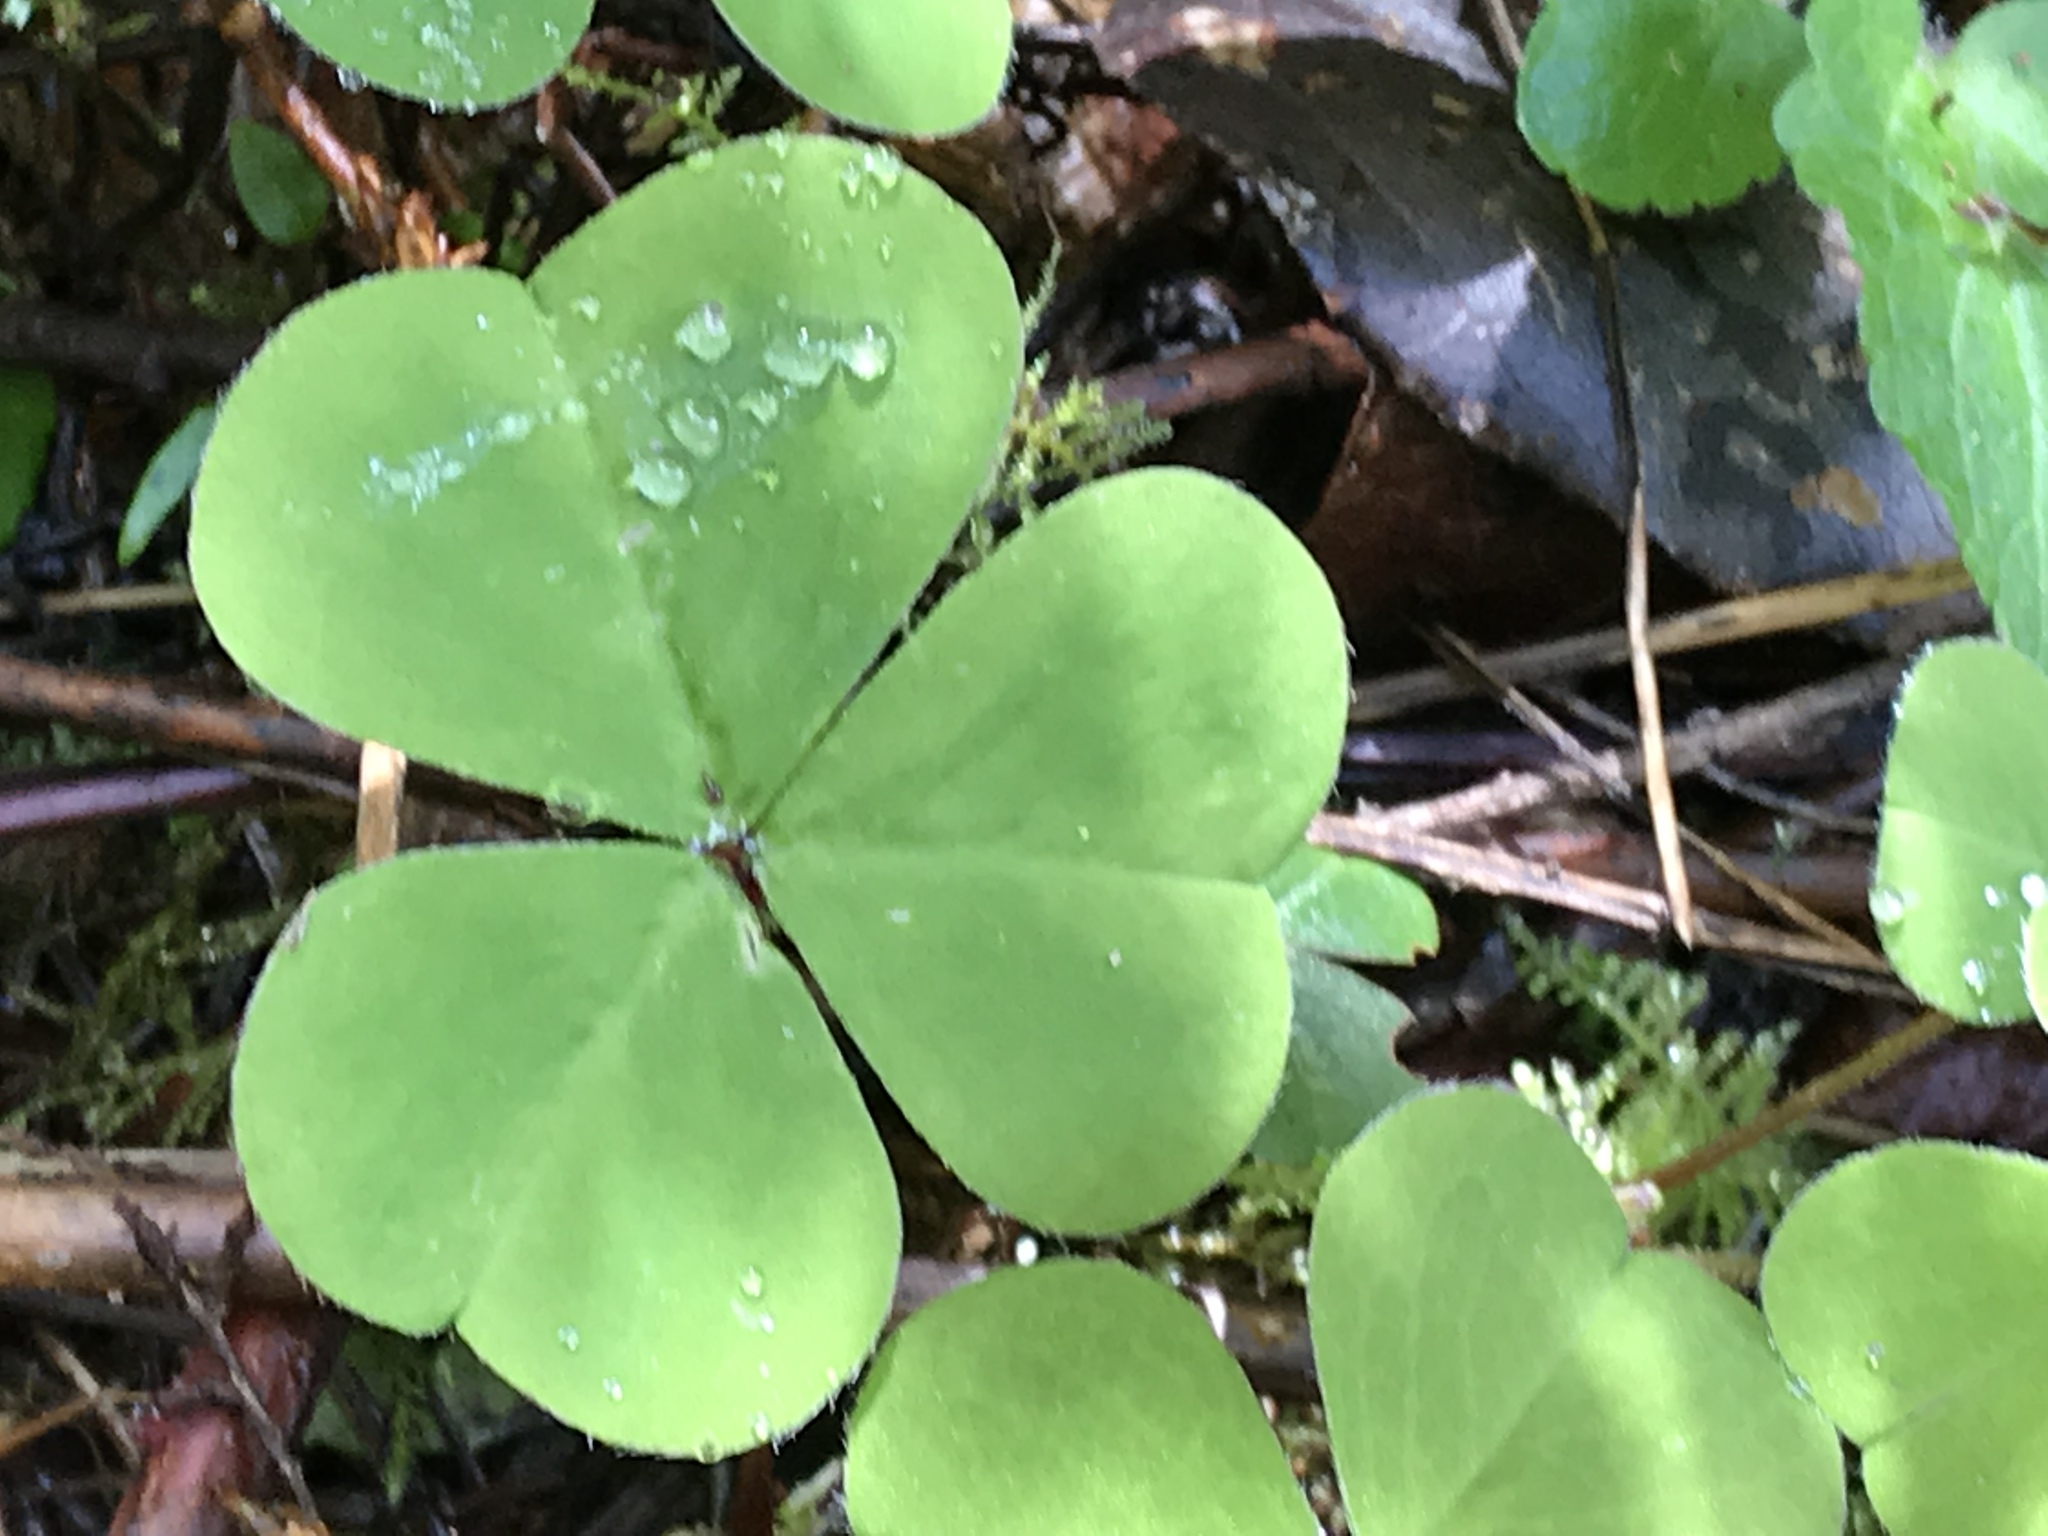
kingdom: Plantae
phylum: Tracheophyta
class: Magnoliopsida
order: Oxalidales
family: Oxalidaceae
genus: Oxalis
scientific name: Oxalis oregana
